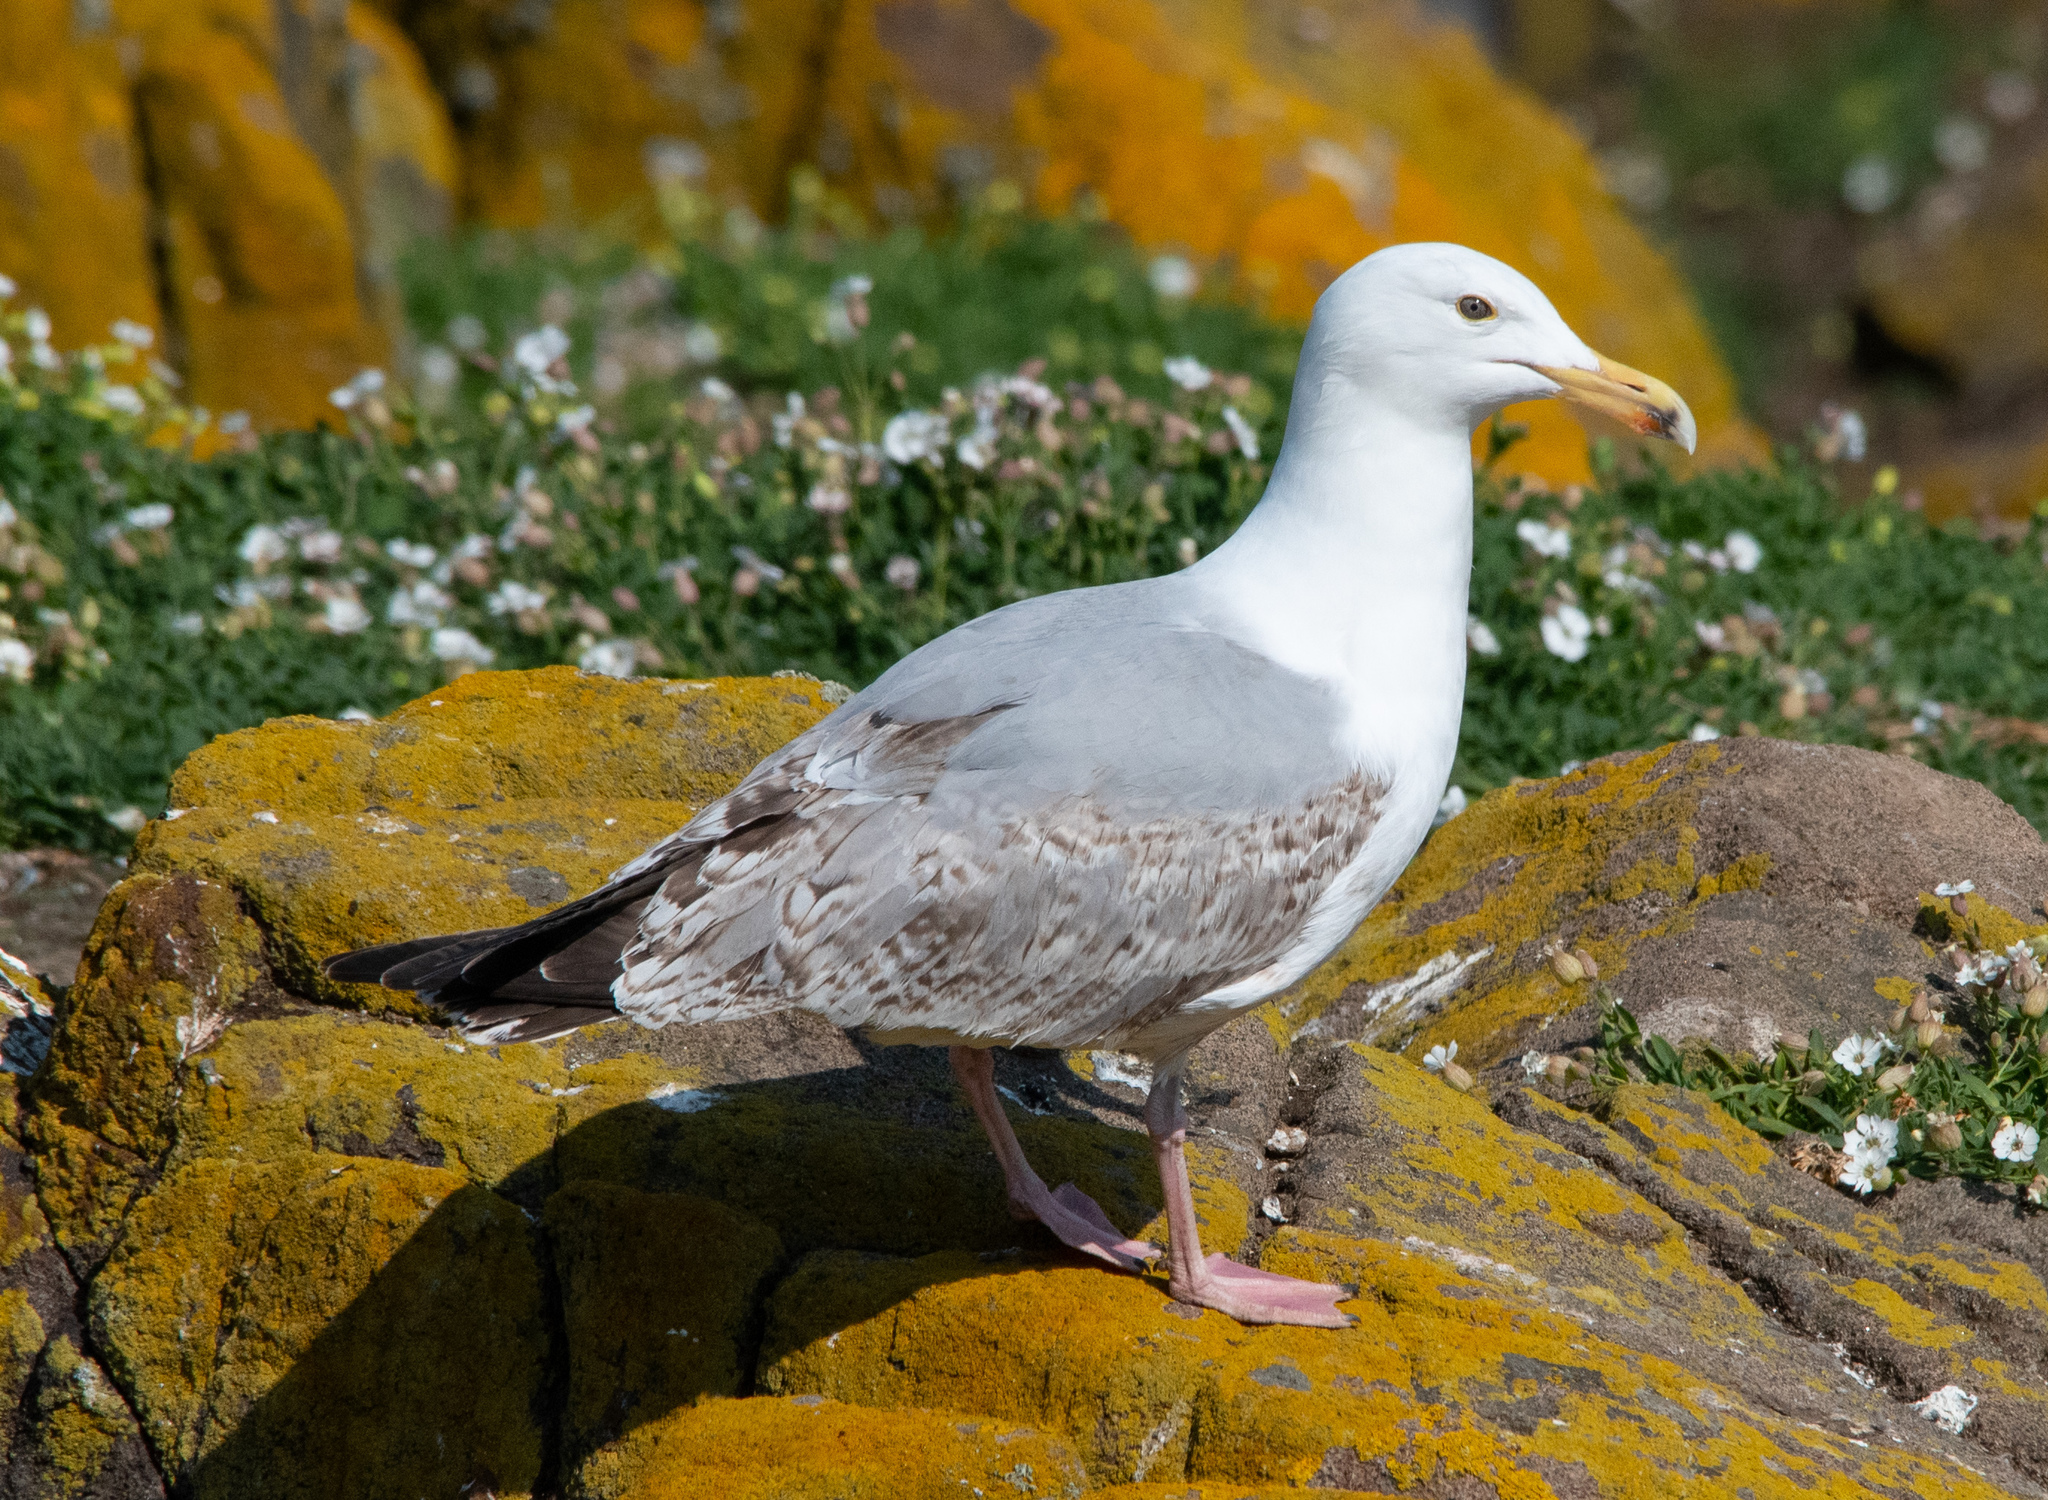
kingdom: Animalia
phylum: Chordata
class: Aves
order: Charadriiformes
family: Laridae
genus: Larus
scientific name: Larus argentatus
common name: Herring gull
